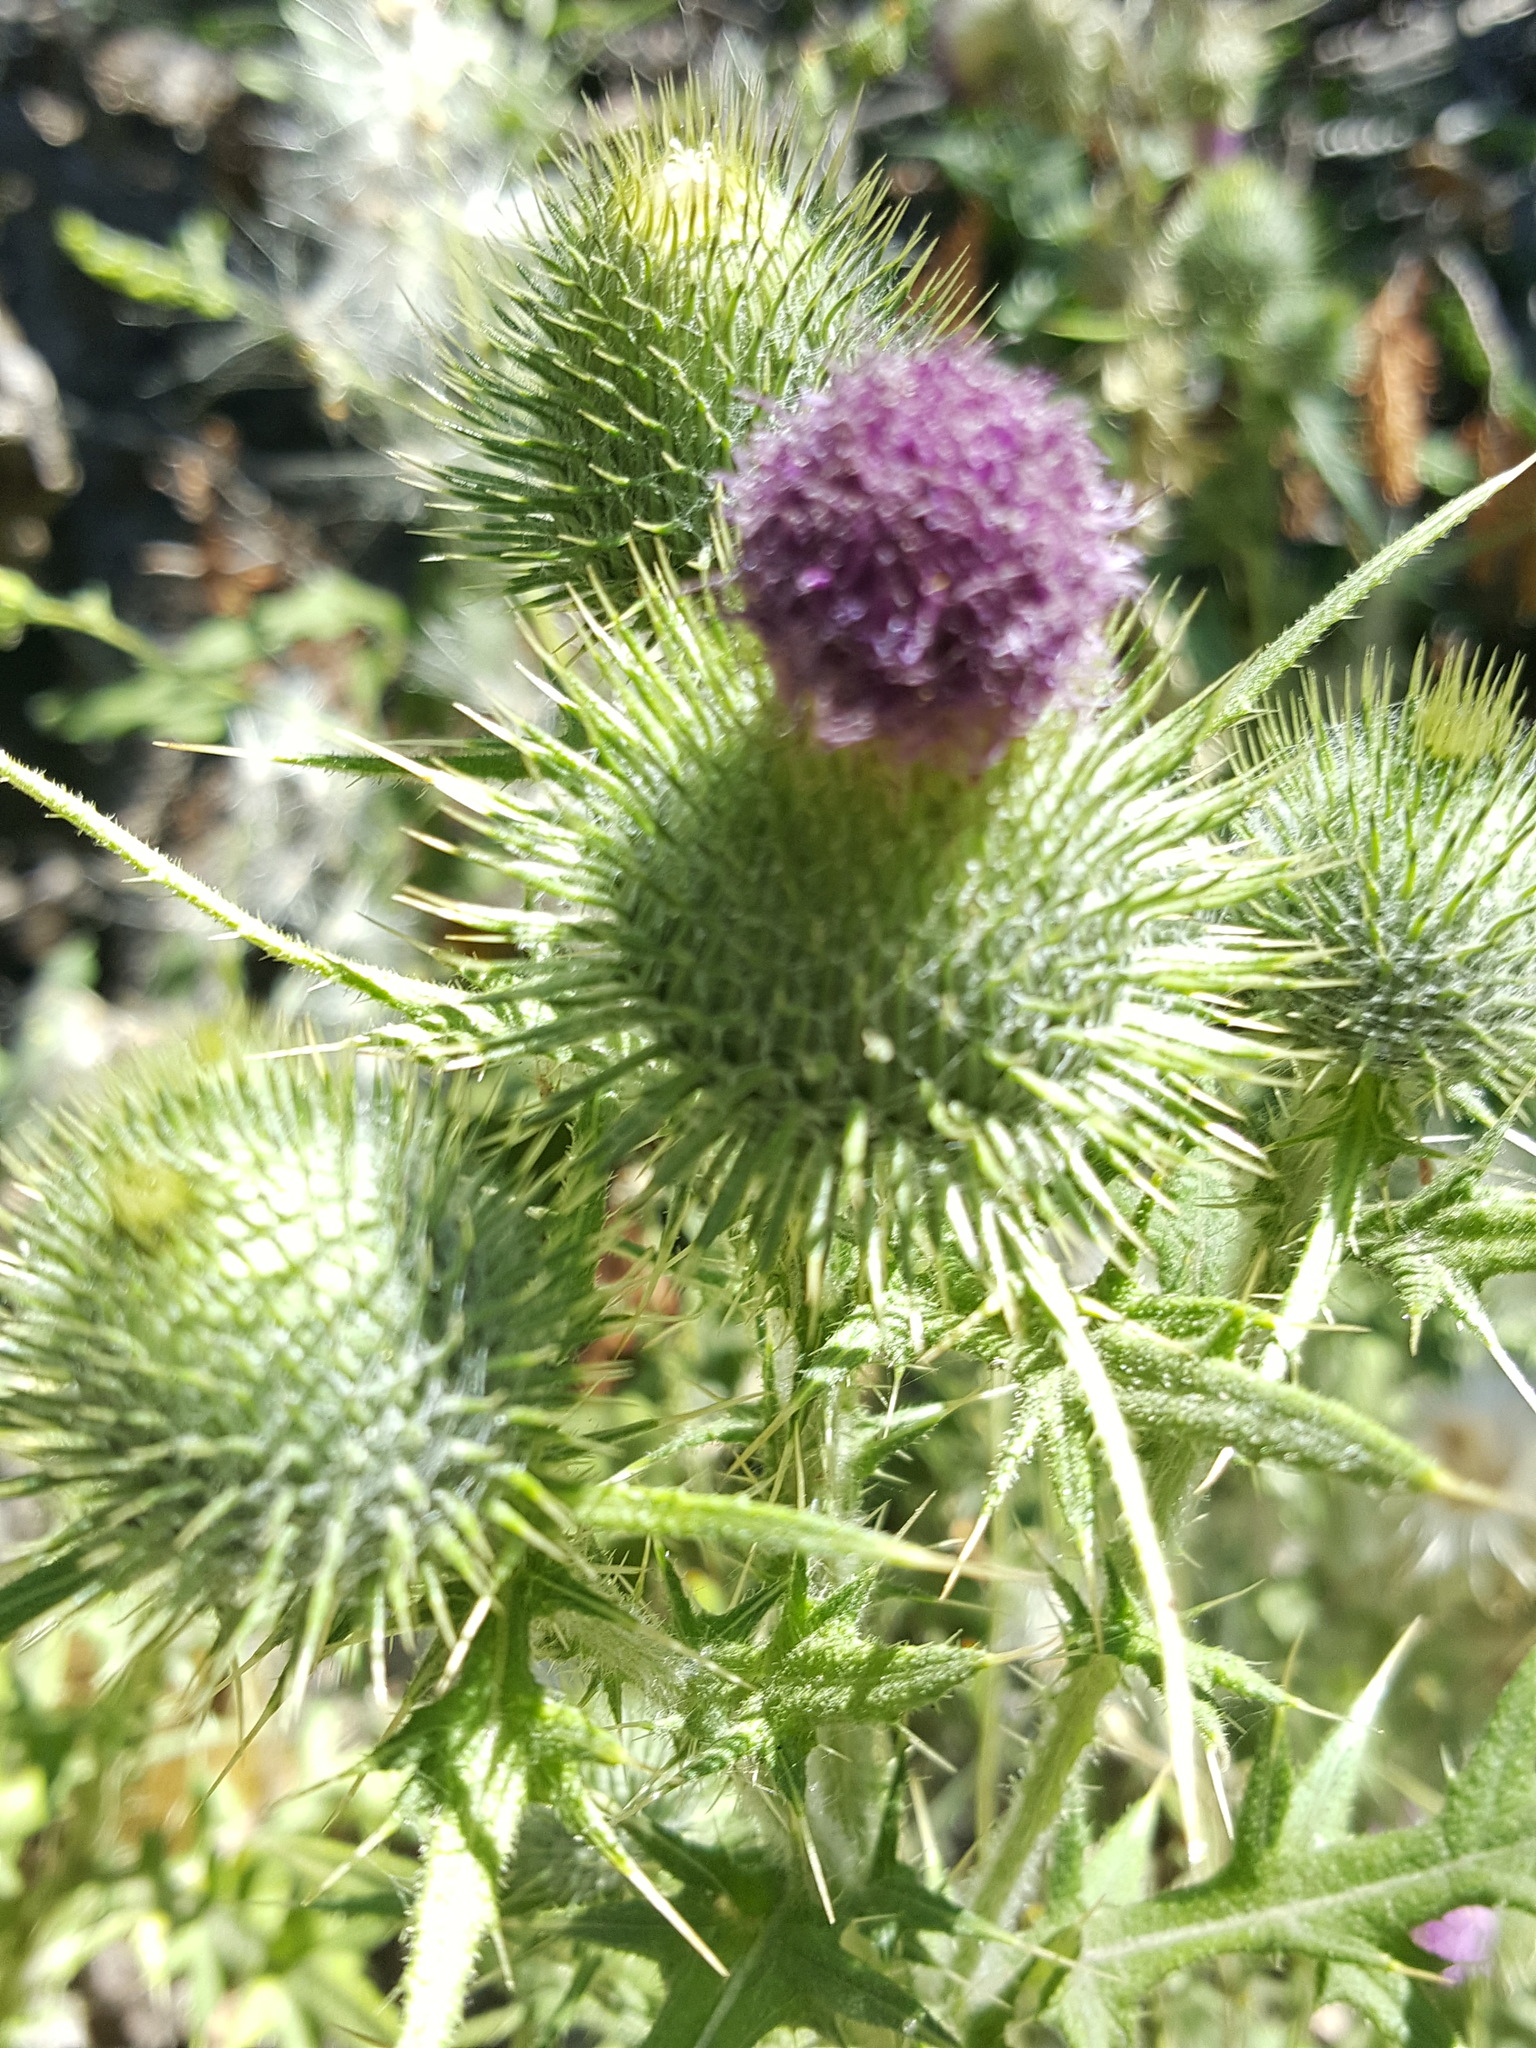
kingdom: Plantae
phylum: Tracheophyta
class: Magnoliopsida
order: Asterales
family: Asteraceae
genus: Cirsium
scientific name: Cirsium vulgare
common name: Bull thistle
